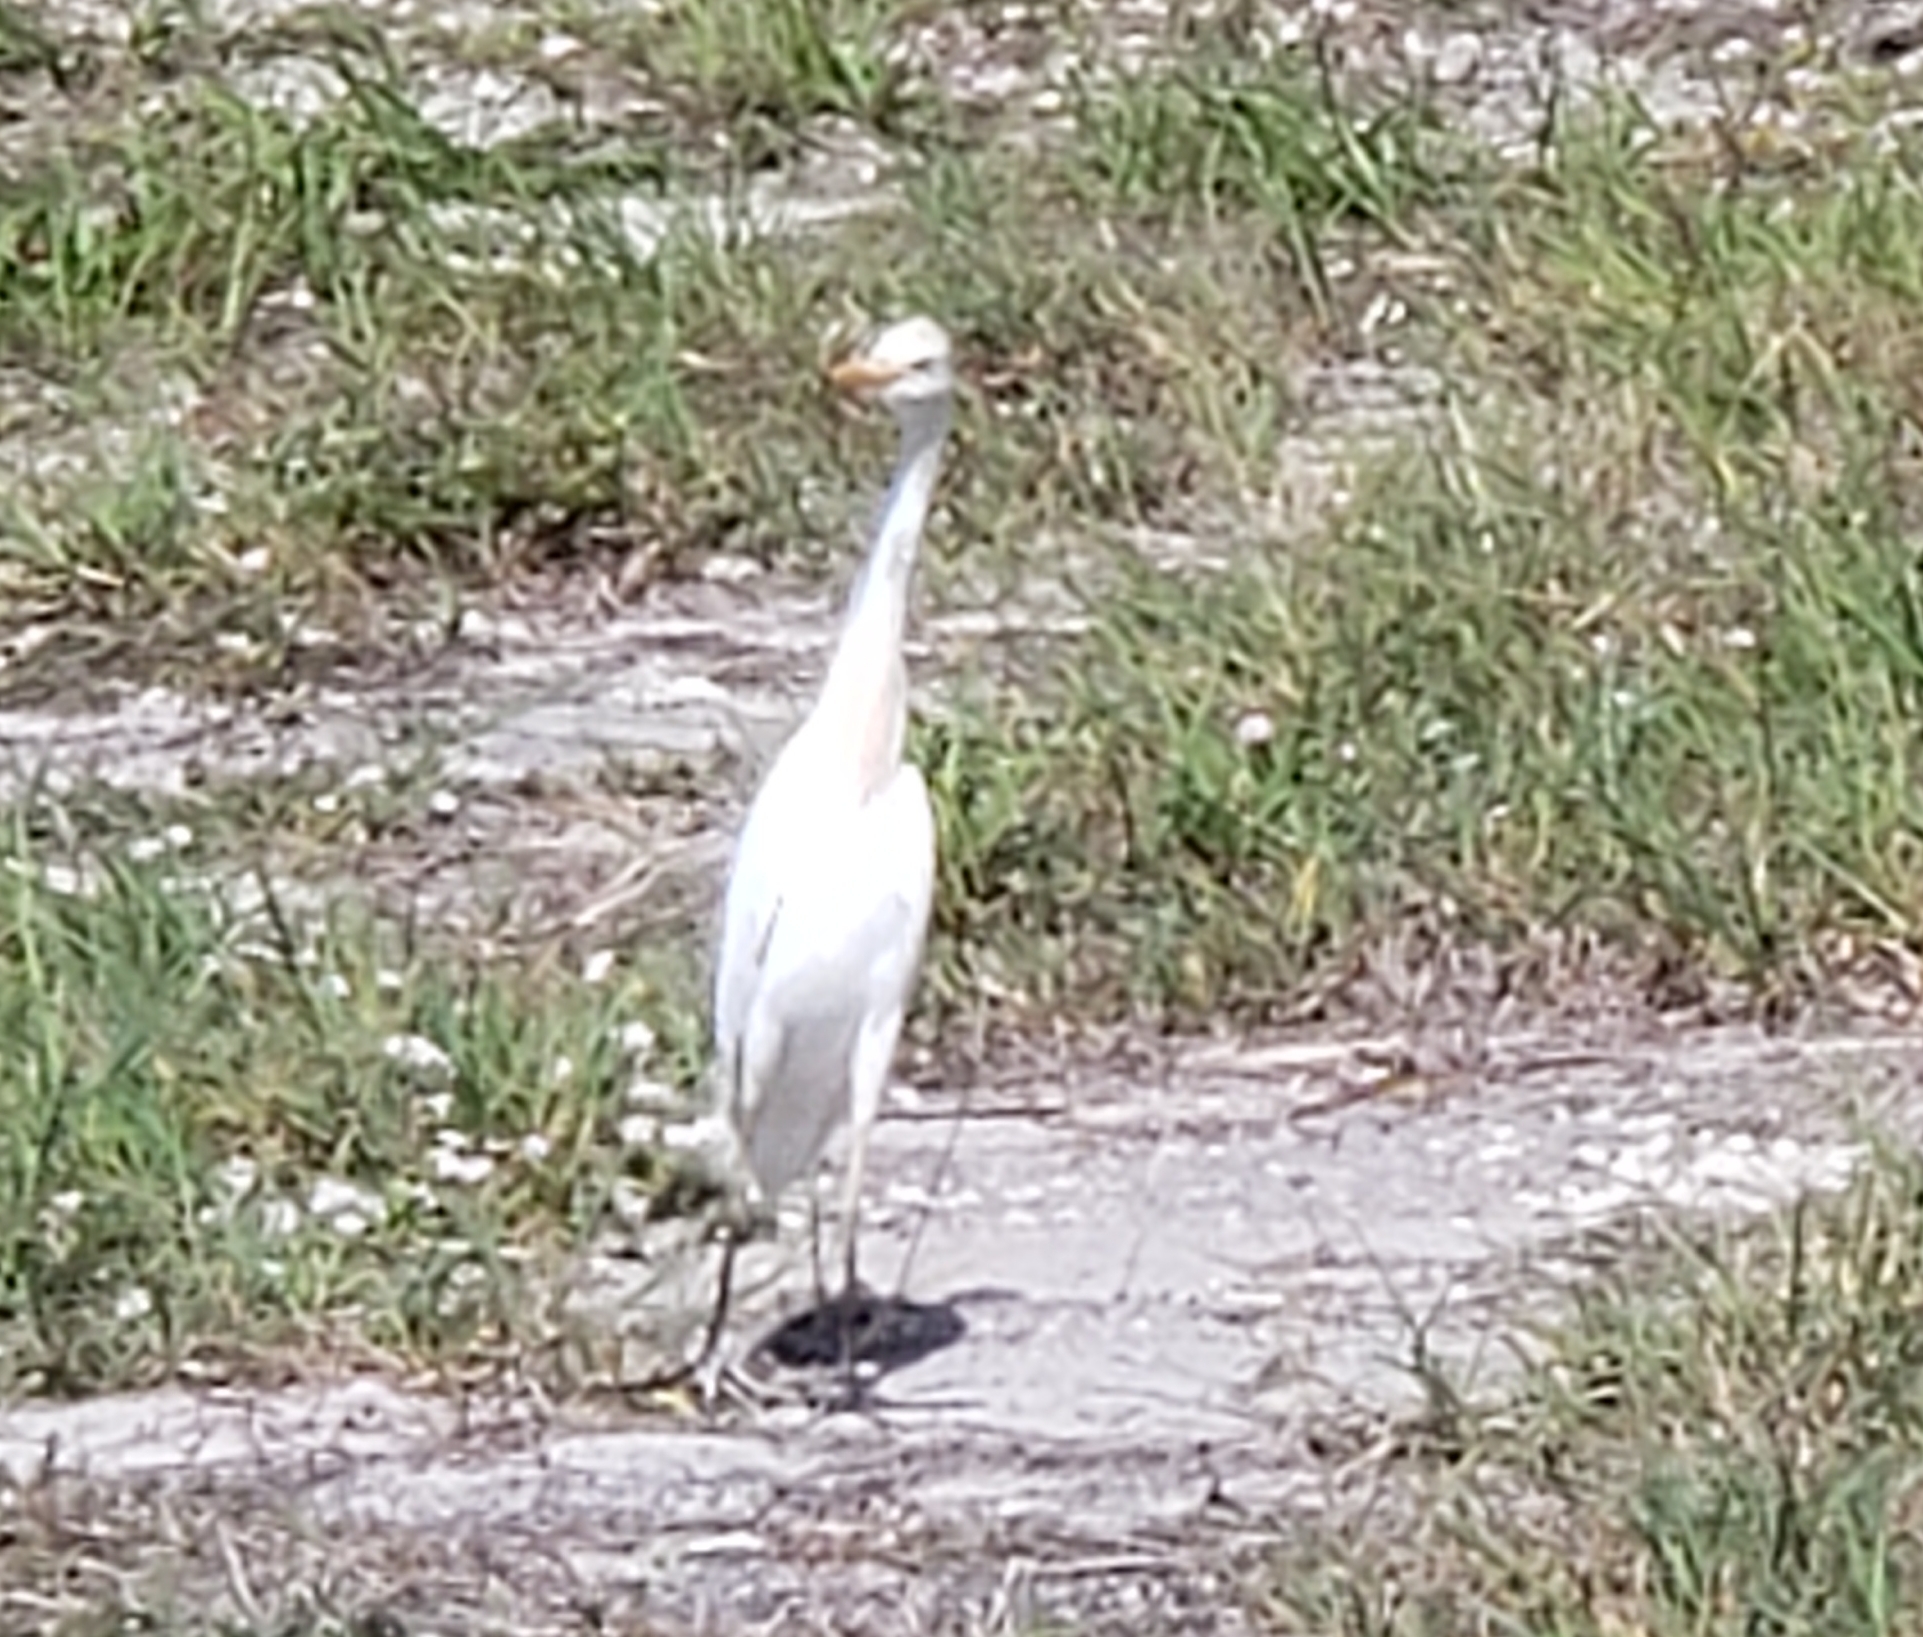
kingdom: Animalia
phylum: Chordata
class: Aves
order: Pelecaniformes
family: Ardeidae
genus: Bubulcus
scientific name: Bubulcus ibis
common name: Cattle egret
